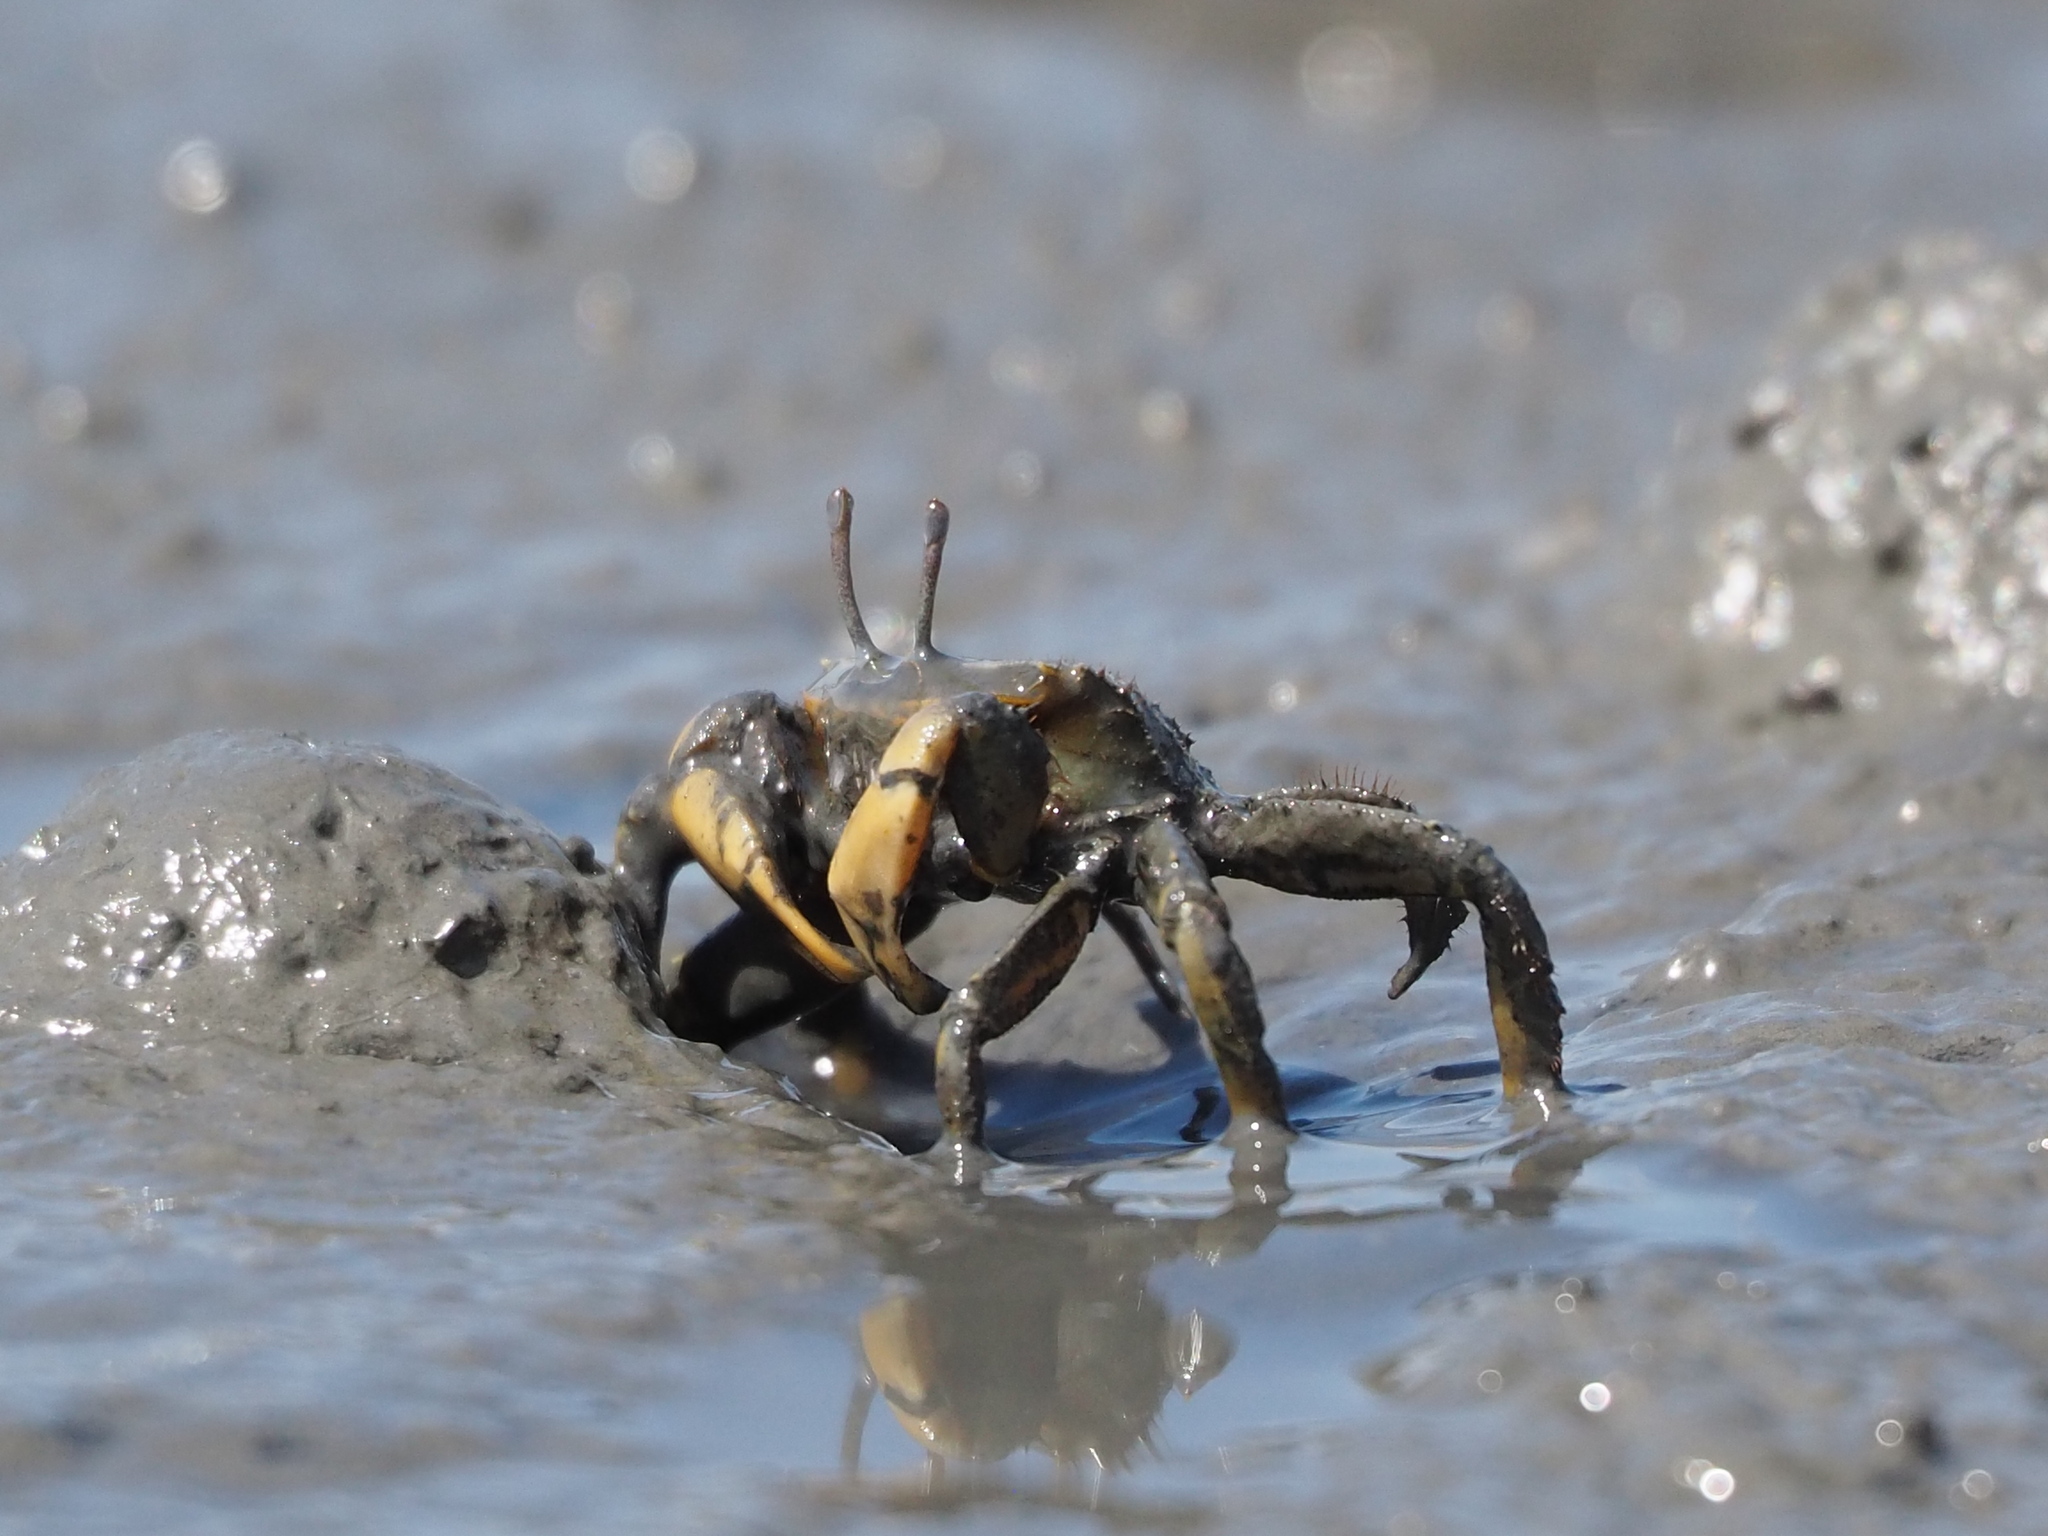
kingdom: Animalia
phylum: Arthropoda
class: Malacostraca
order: Decapoda
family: Macrophthalmidae
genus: Macrophthalmus
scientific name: Macrophthalmus banzai
